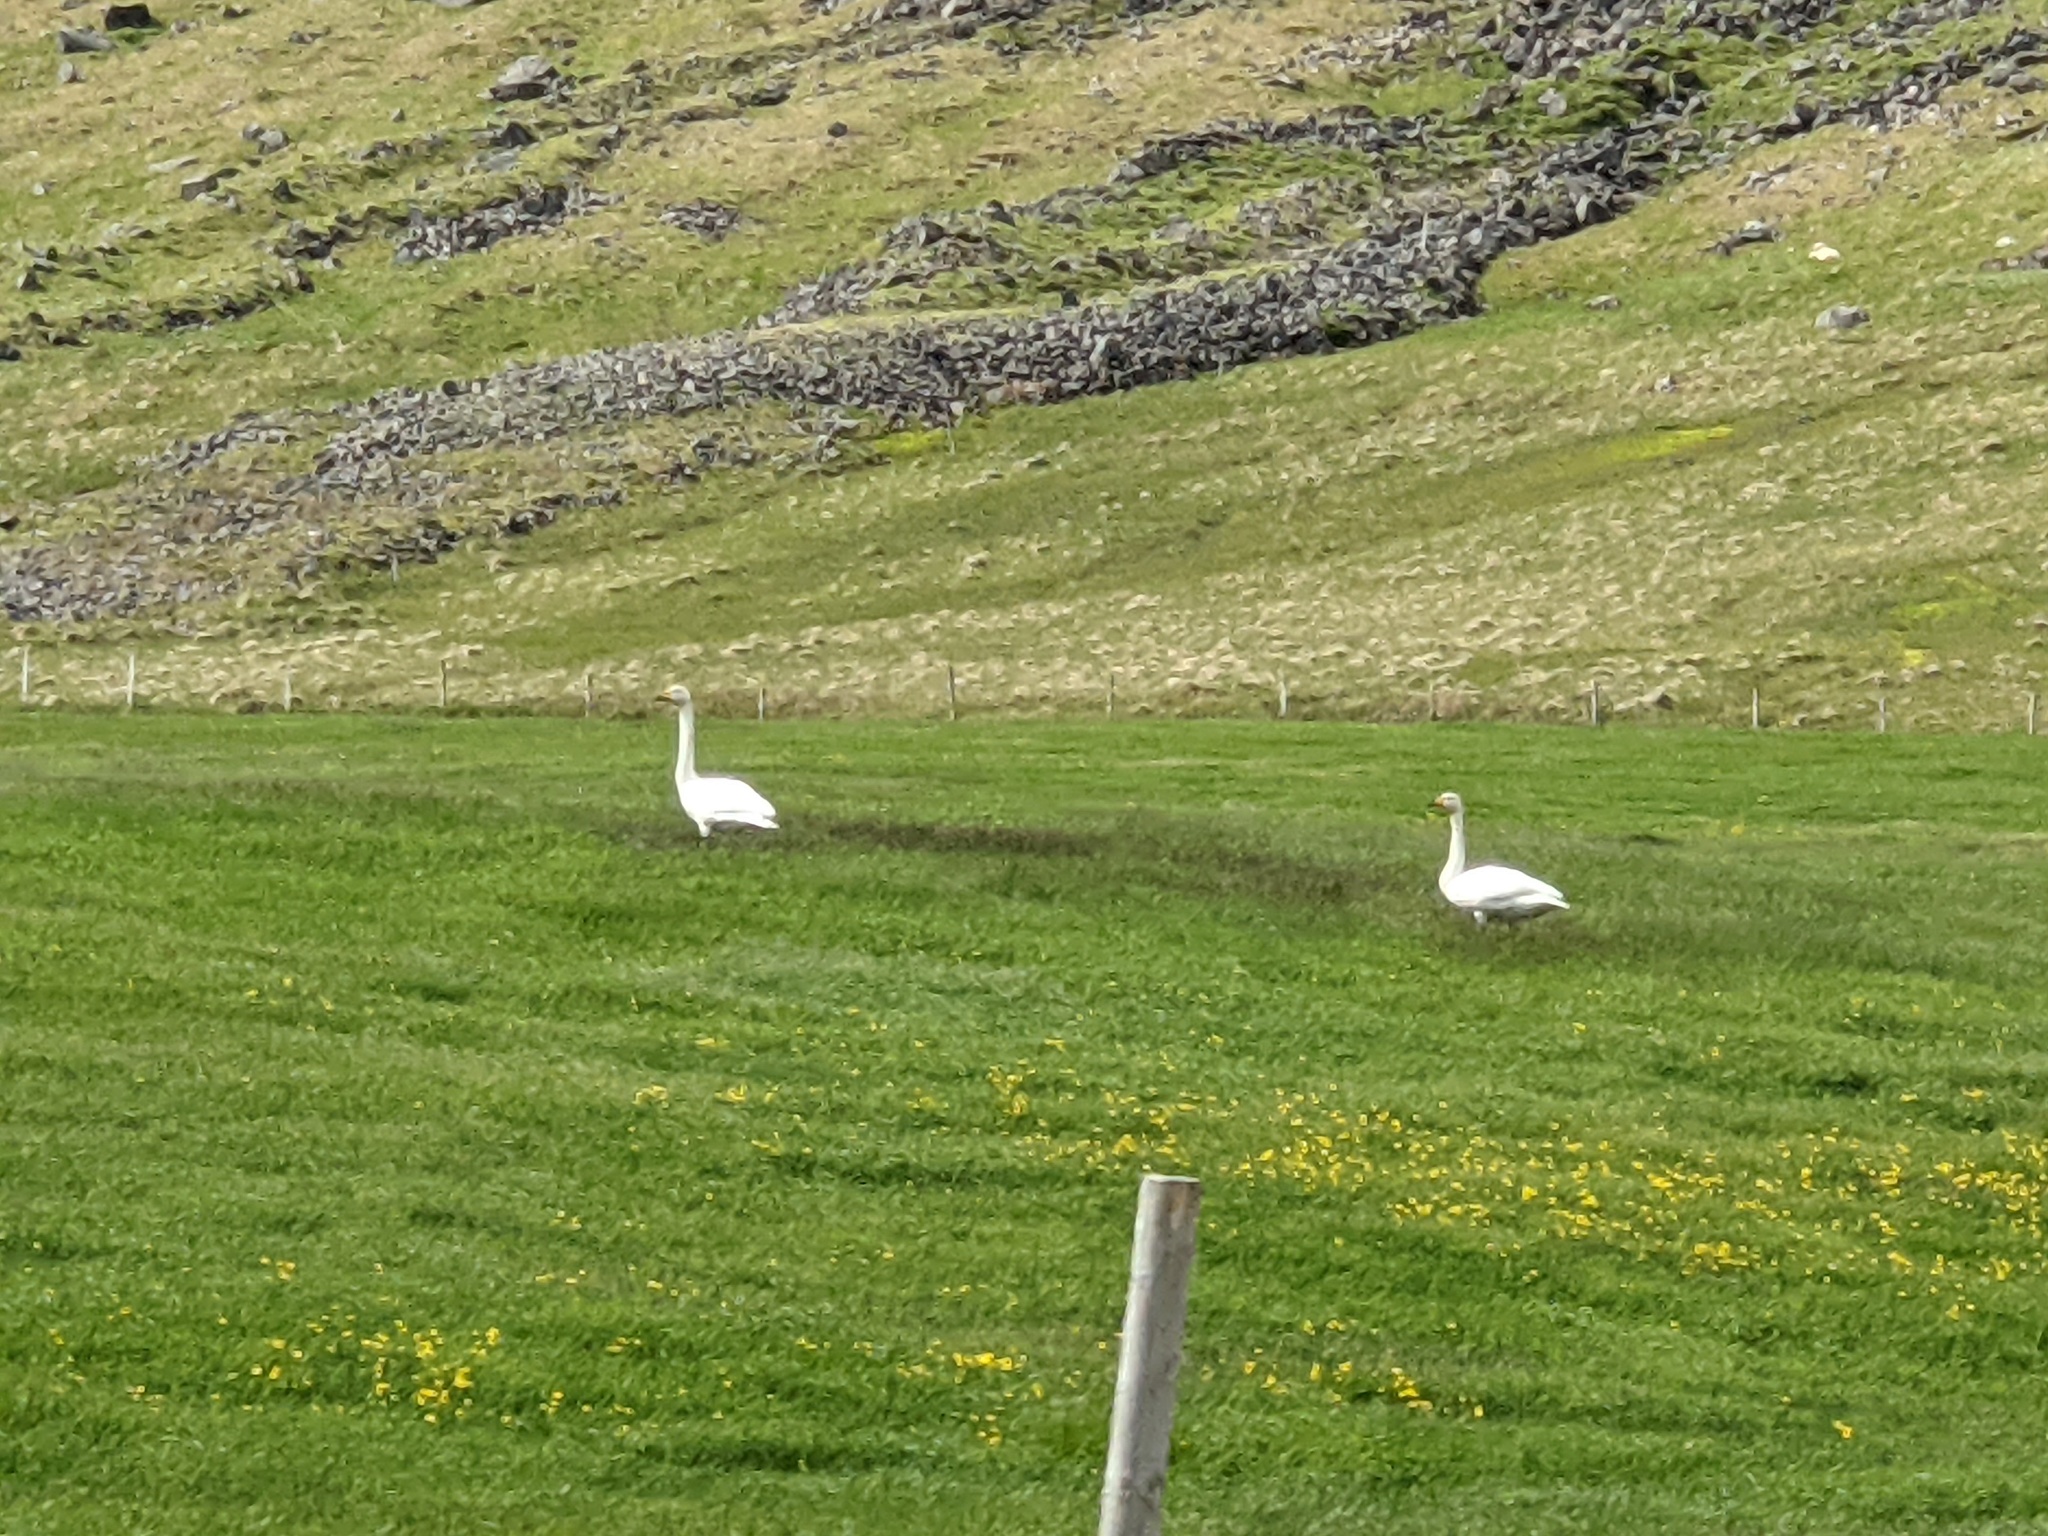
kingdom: Animalia
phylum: Chordata
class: Aves
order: Anseriformes
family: Anatidae
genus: Cygnus
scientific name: Cygnus cygnus
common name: Whooper swan
